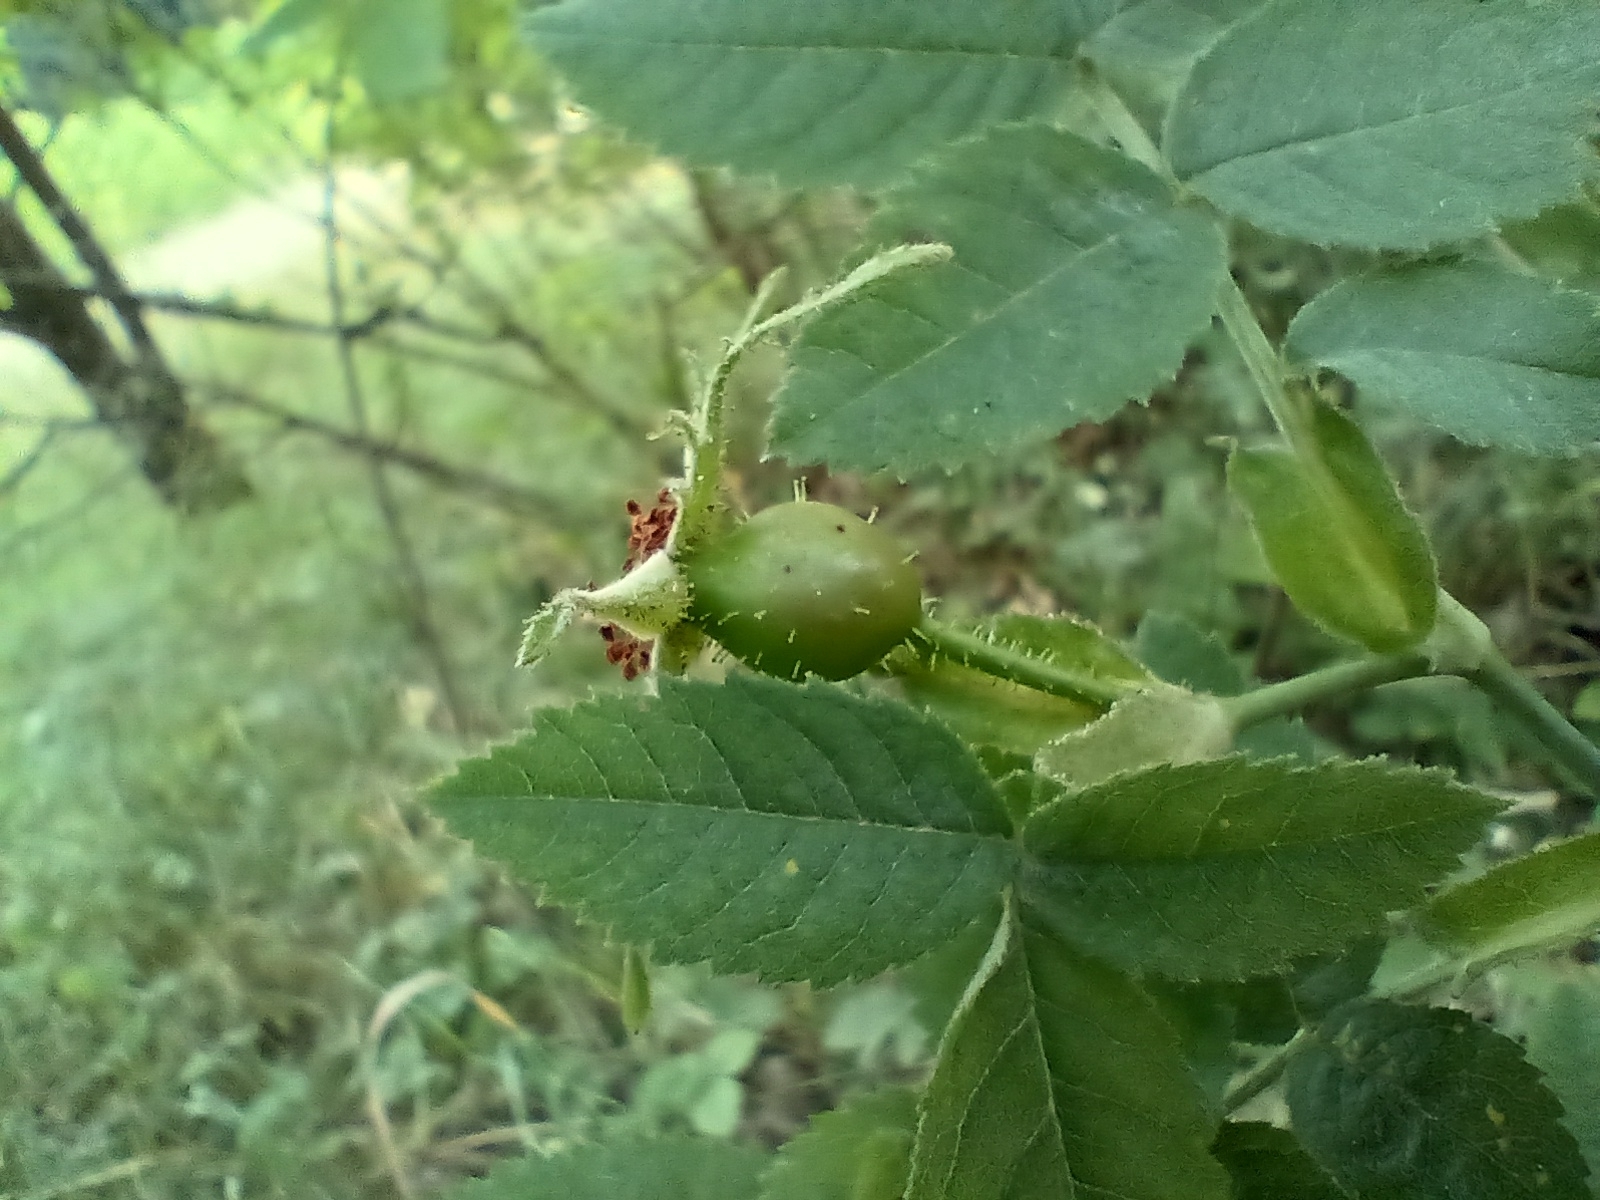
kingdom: Plantae
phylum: Tracheophyta
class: Magnoliopsida
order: Rosales
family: Rosaceae
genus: Rosa
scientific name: Rosa sherardii
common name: Sherard's downy rose
